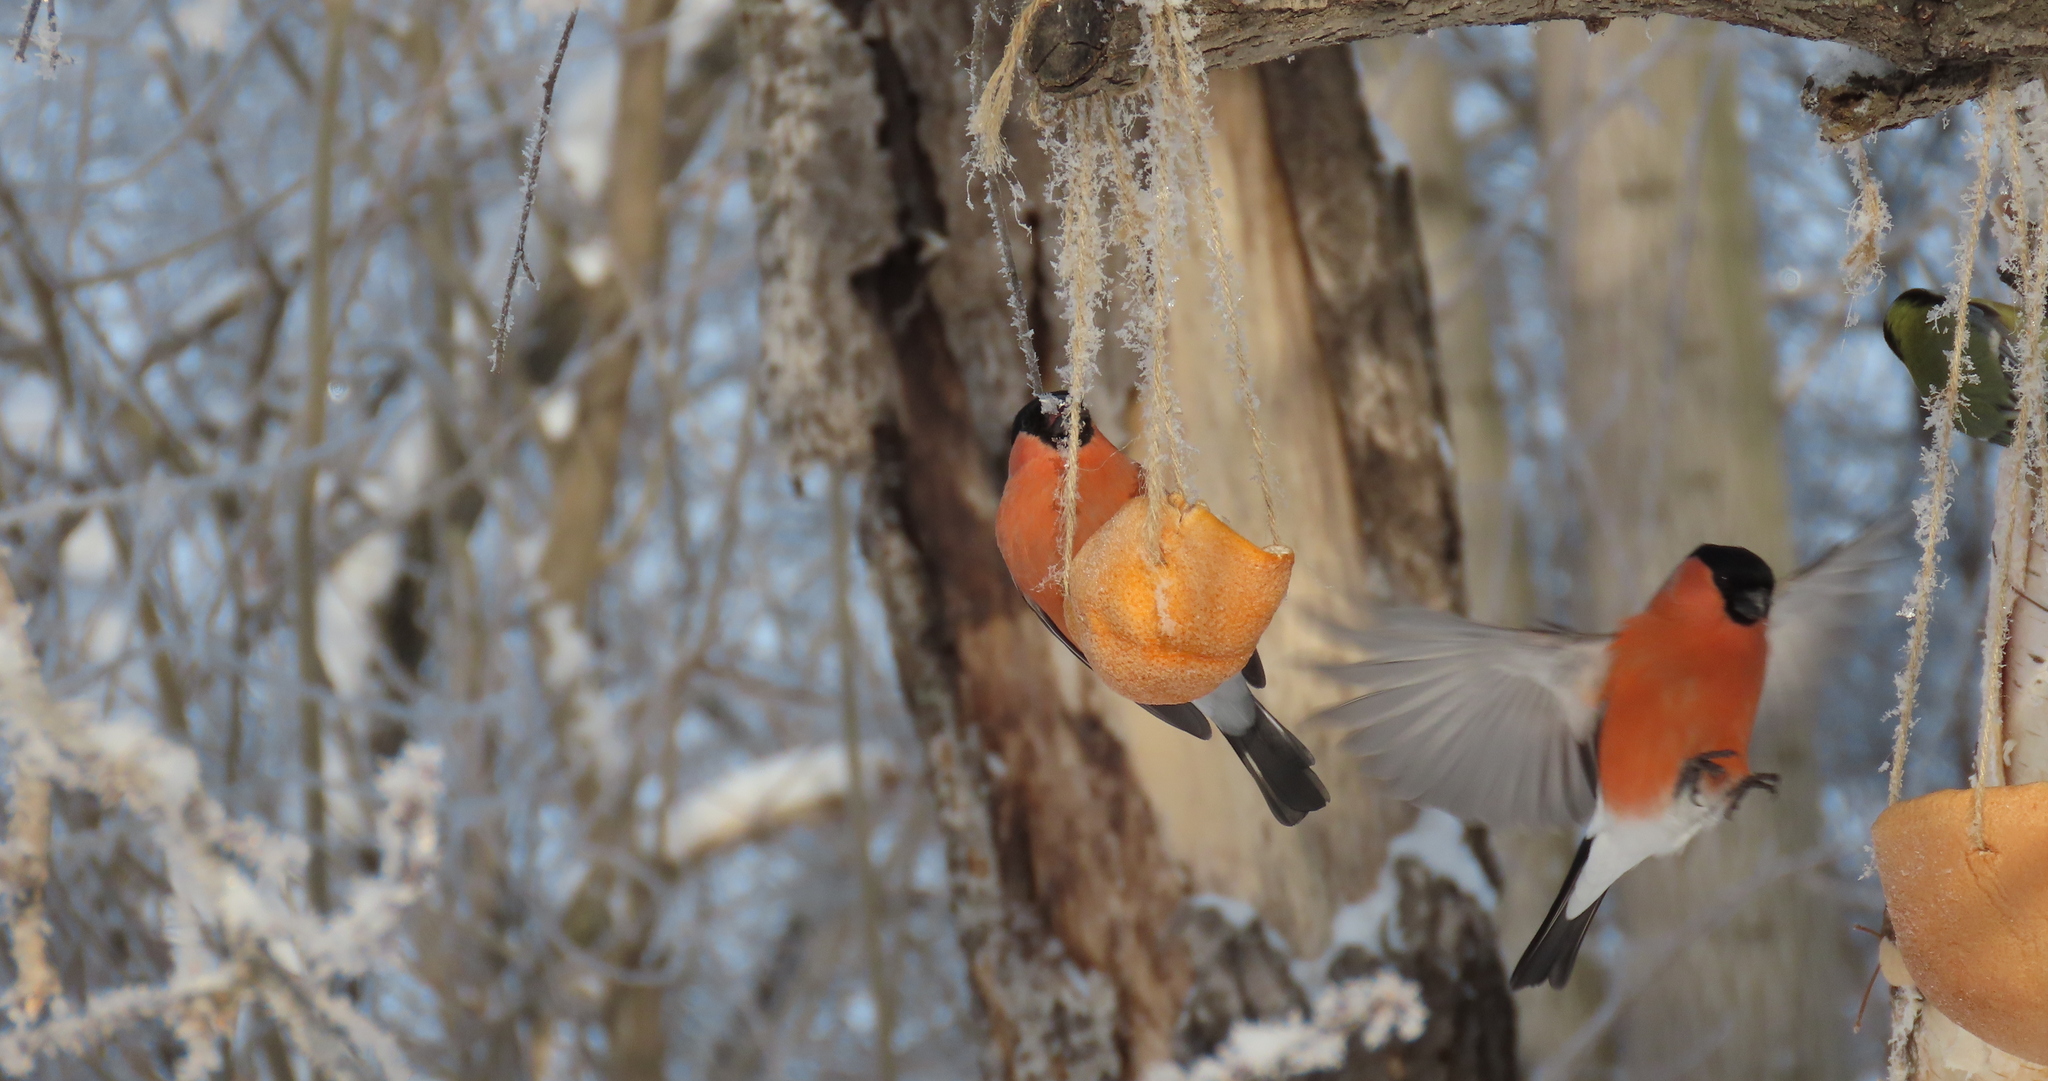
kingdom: Animalia
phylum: Chordata
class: Aves
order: Passeriformes
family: Fringillidae
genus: Pyrrhula
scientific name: Pyrrhula pyrrhula
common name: Eurasian bullfinch
